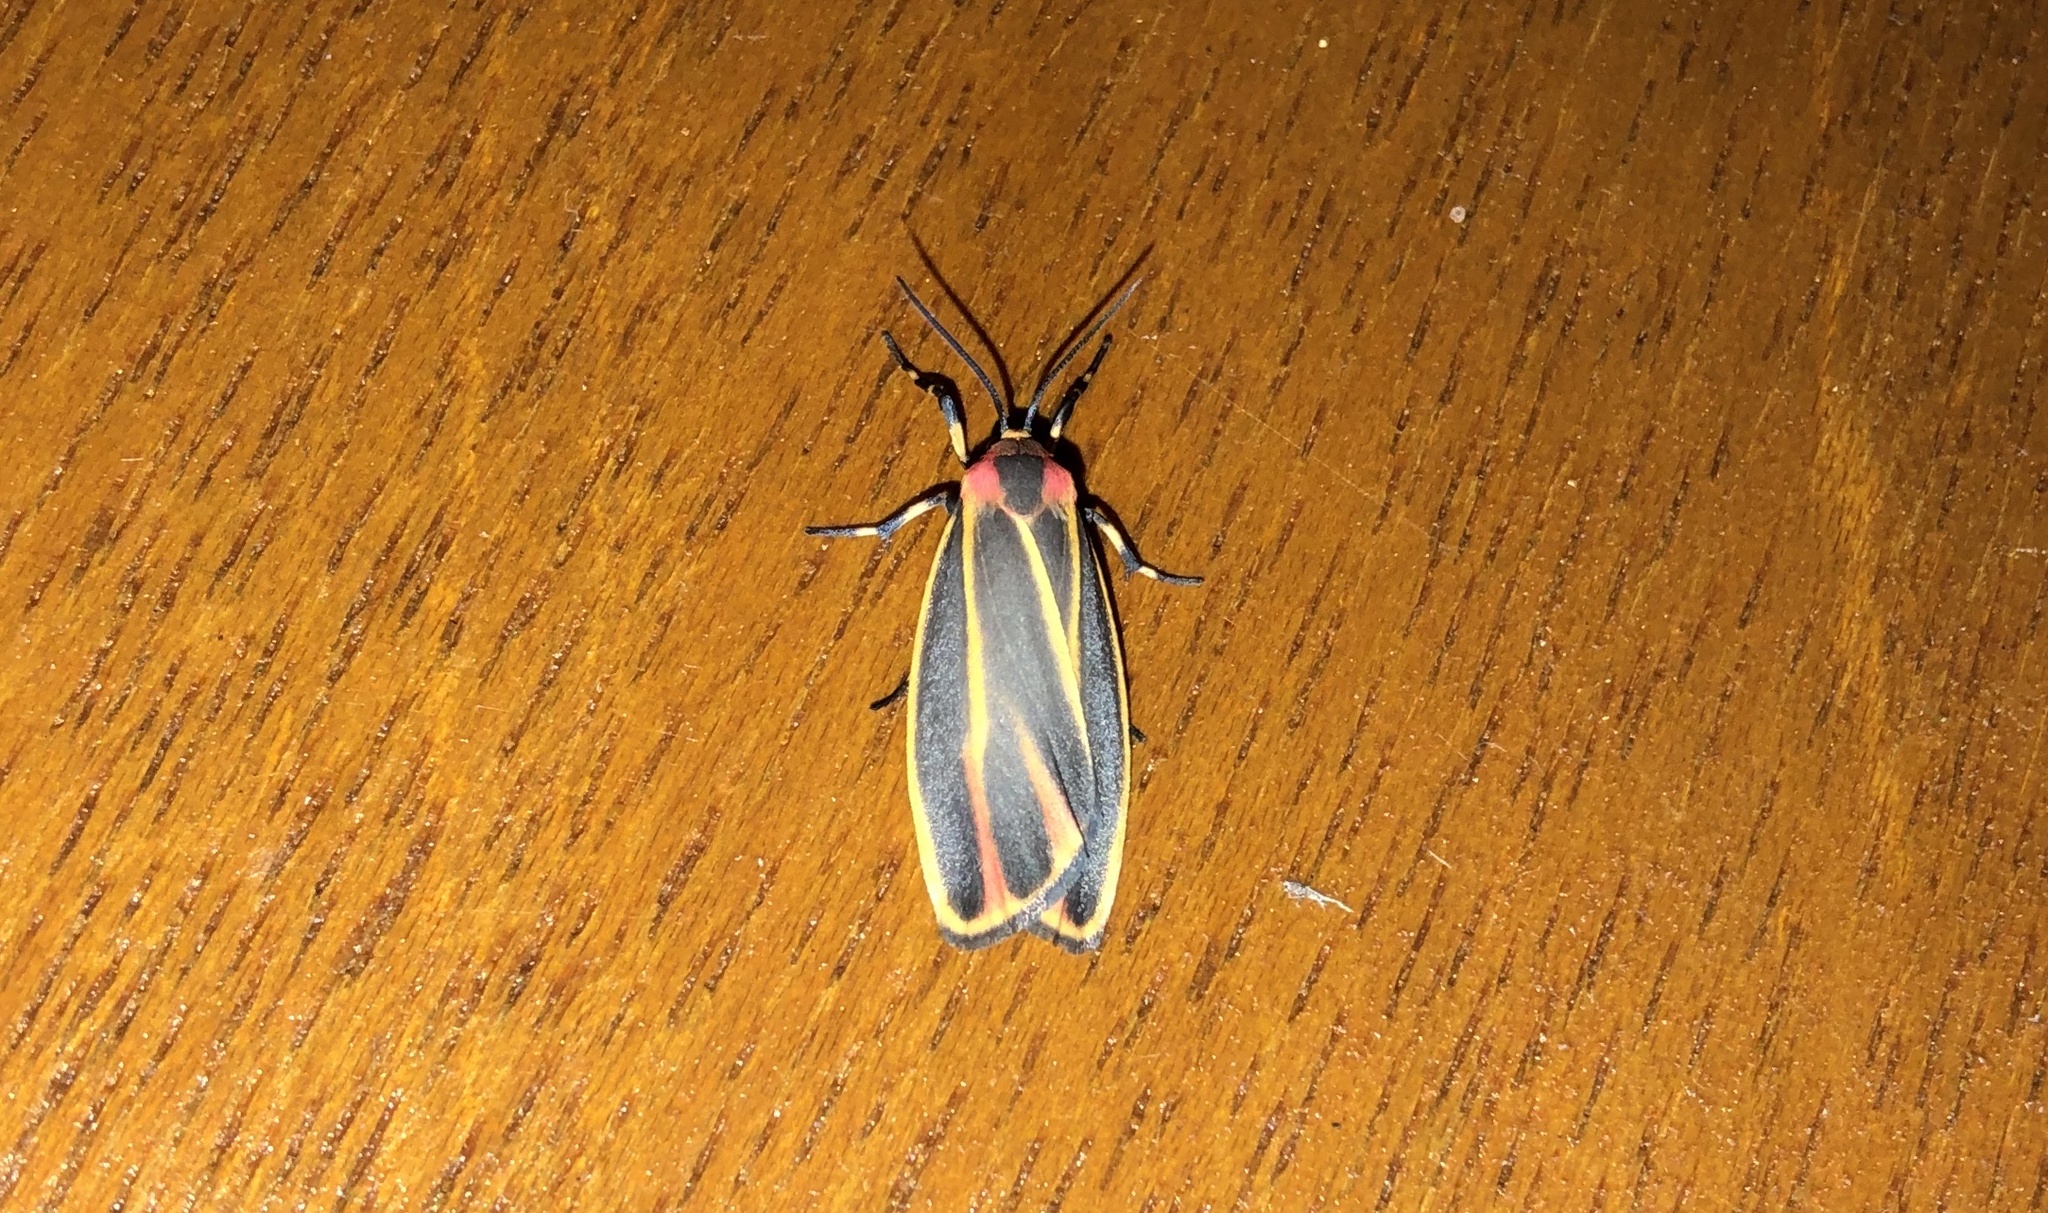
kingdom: Animalia
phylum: Arthropoda
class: Insecta
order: Lepidoptera
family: Erebidae
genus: Hypoprepia
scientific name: Hypoprepia fucosa
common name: Painted lichen moth
